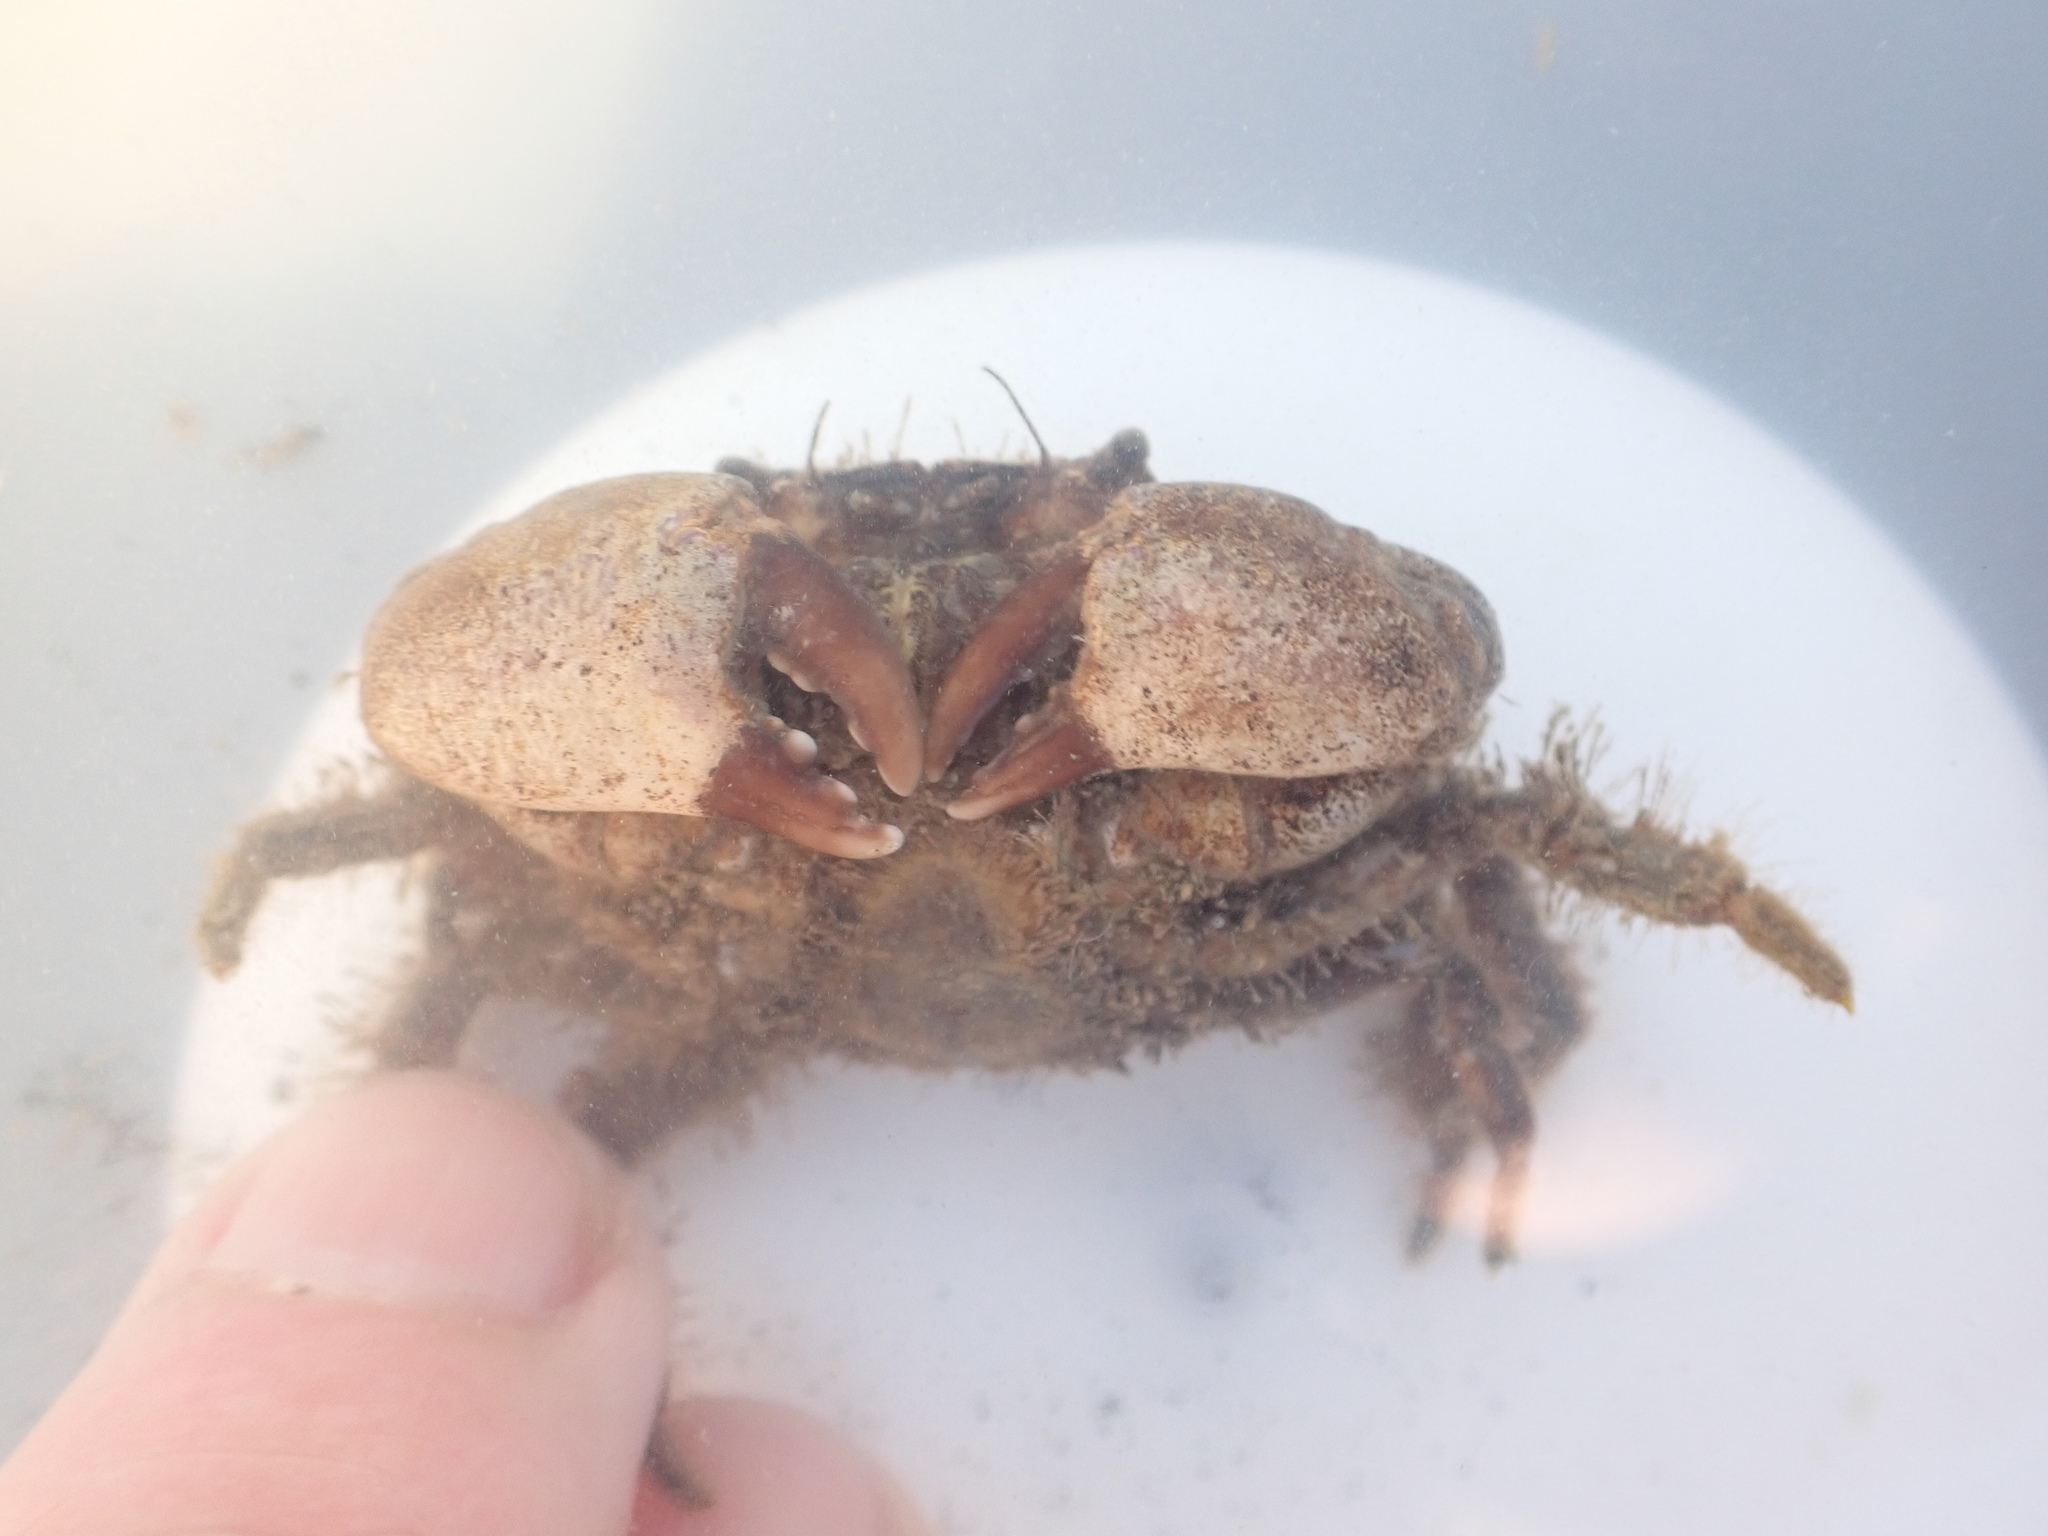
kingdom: Animalia
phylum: Arthropoda
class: Malacostraca
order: Decapoda
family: Pilumnidae
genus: Pilumnopeus
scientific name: Pilumnopeus serratifrons
